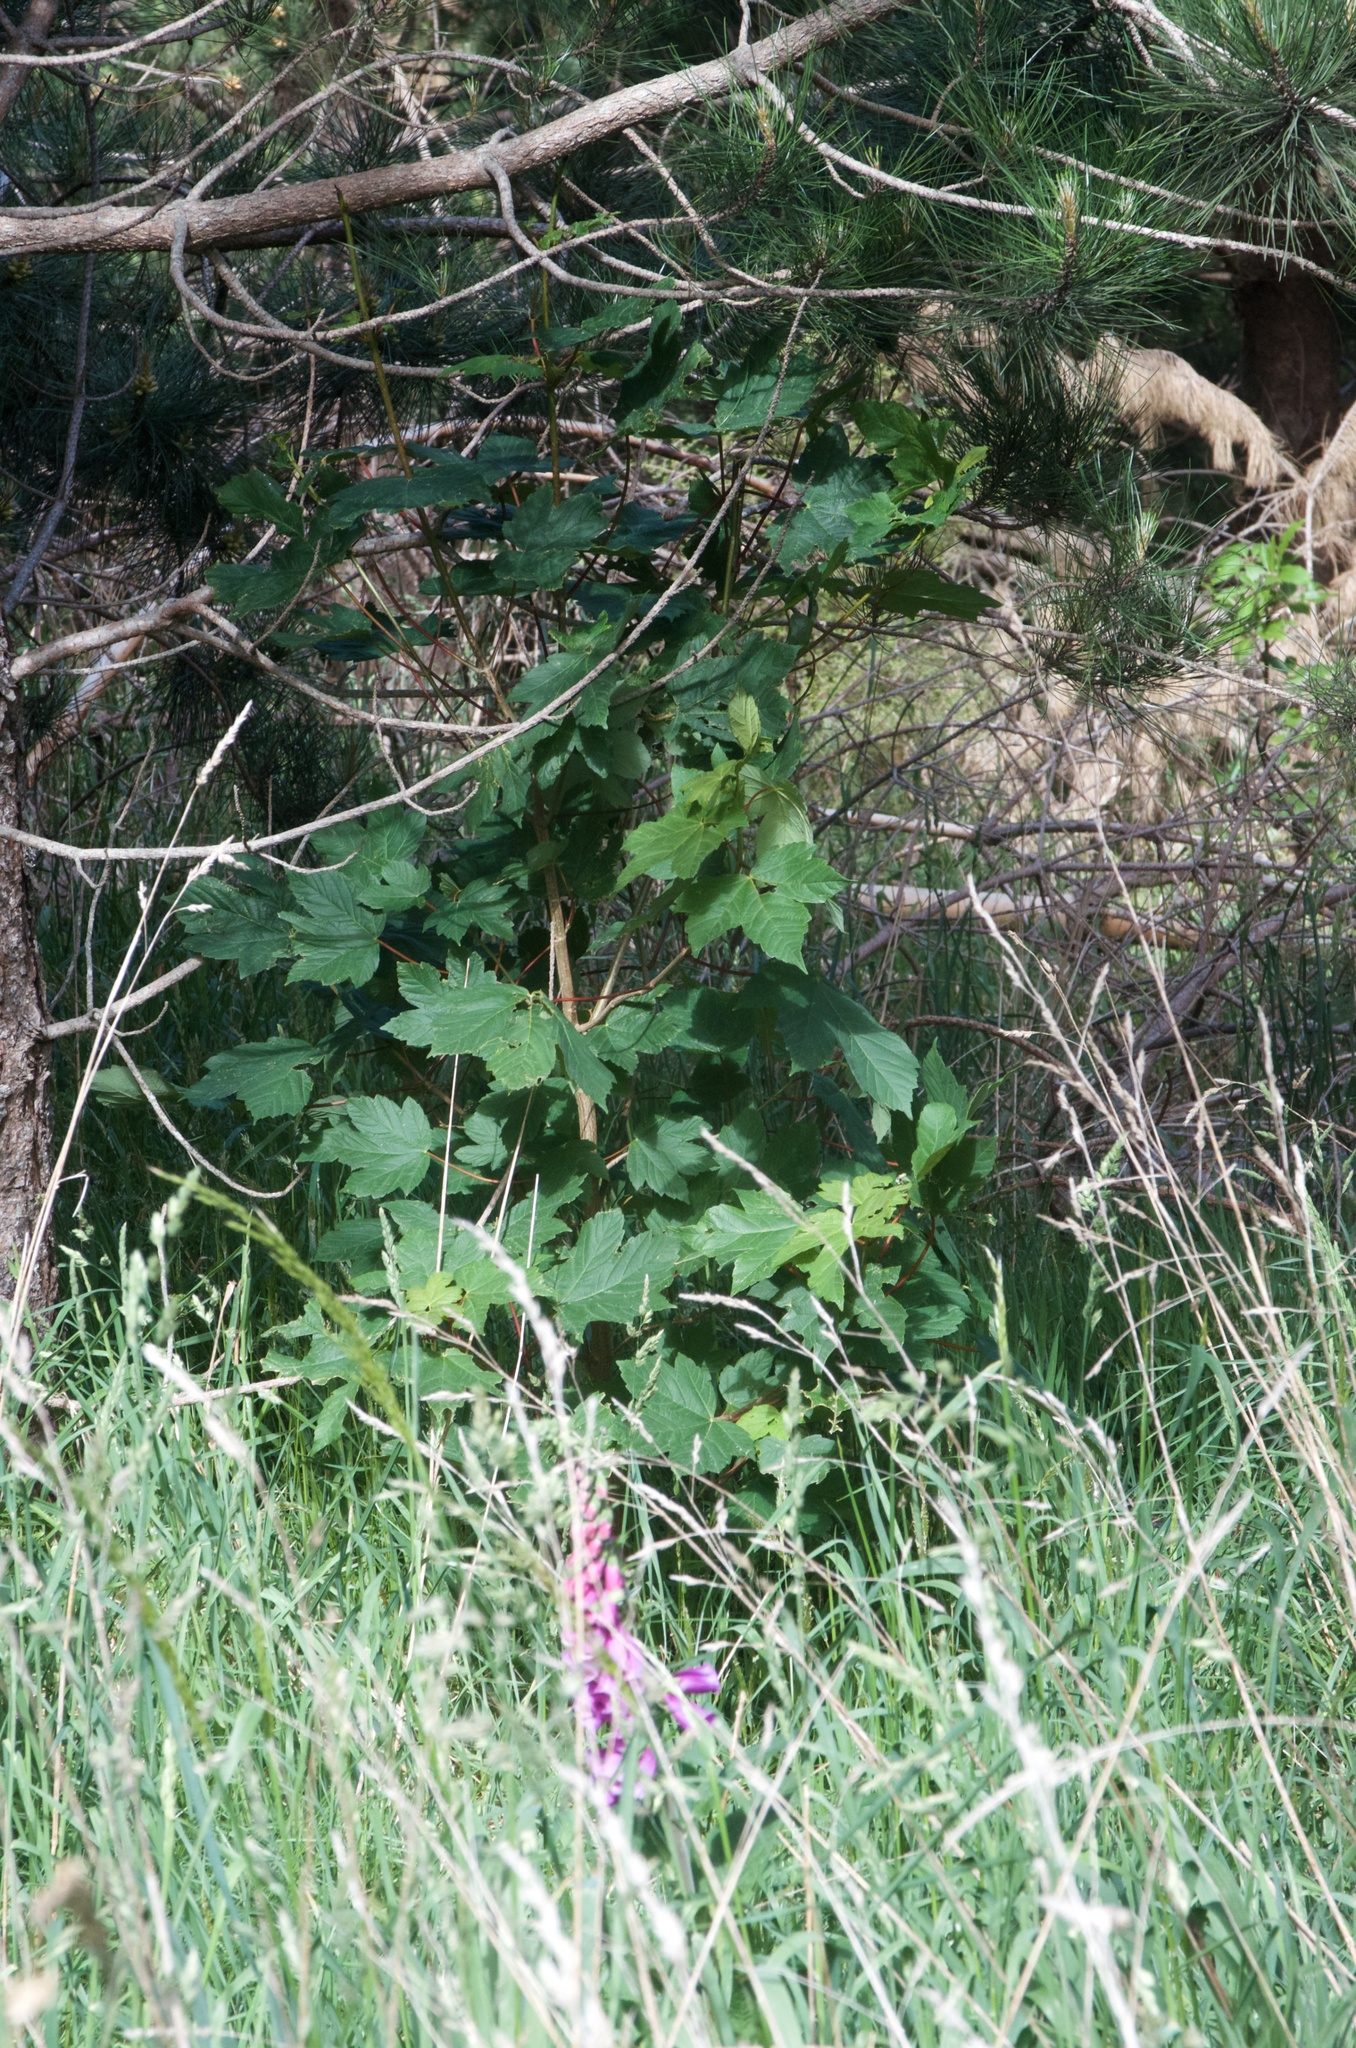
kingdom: Plantae
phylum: Tracheophyta
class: Magnoliopsida
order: Sapindales
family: Sapindaceae
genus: Acer
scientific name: Acer pseudoplatanus
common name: Sycamore
